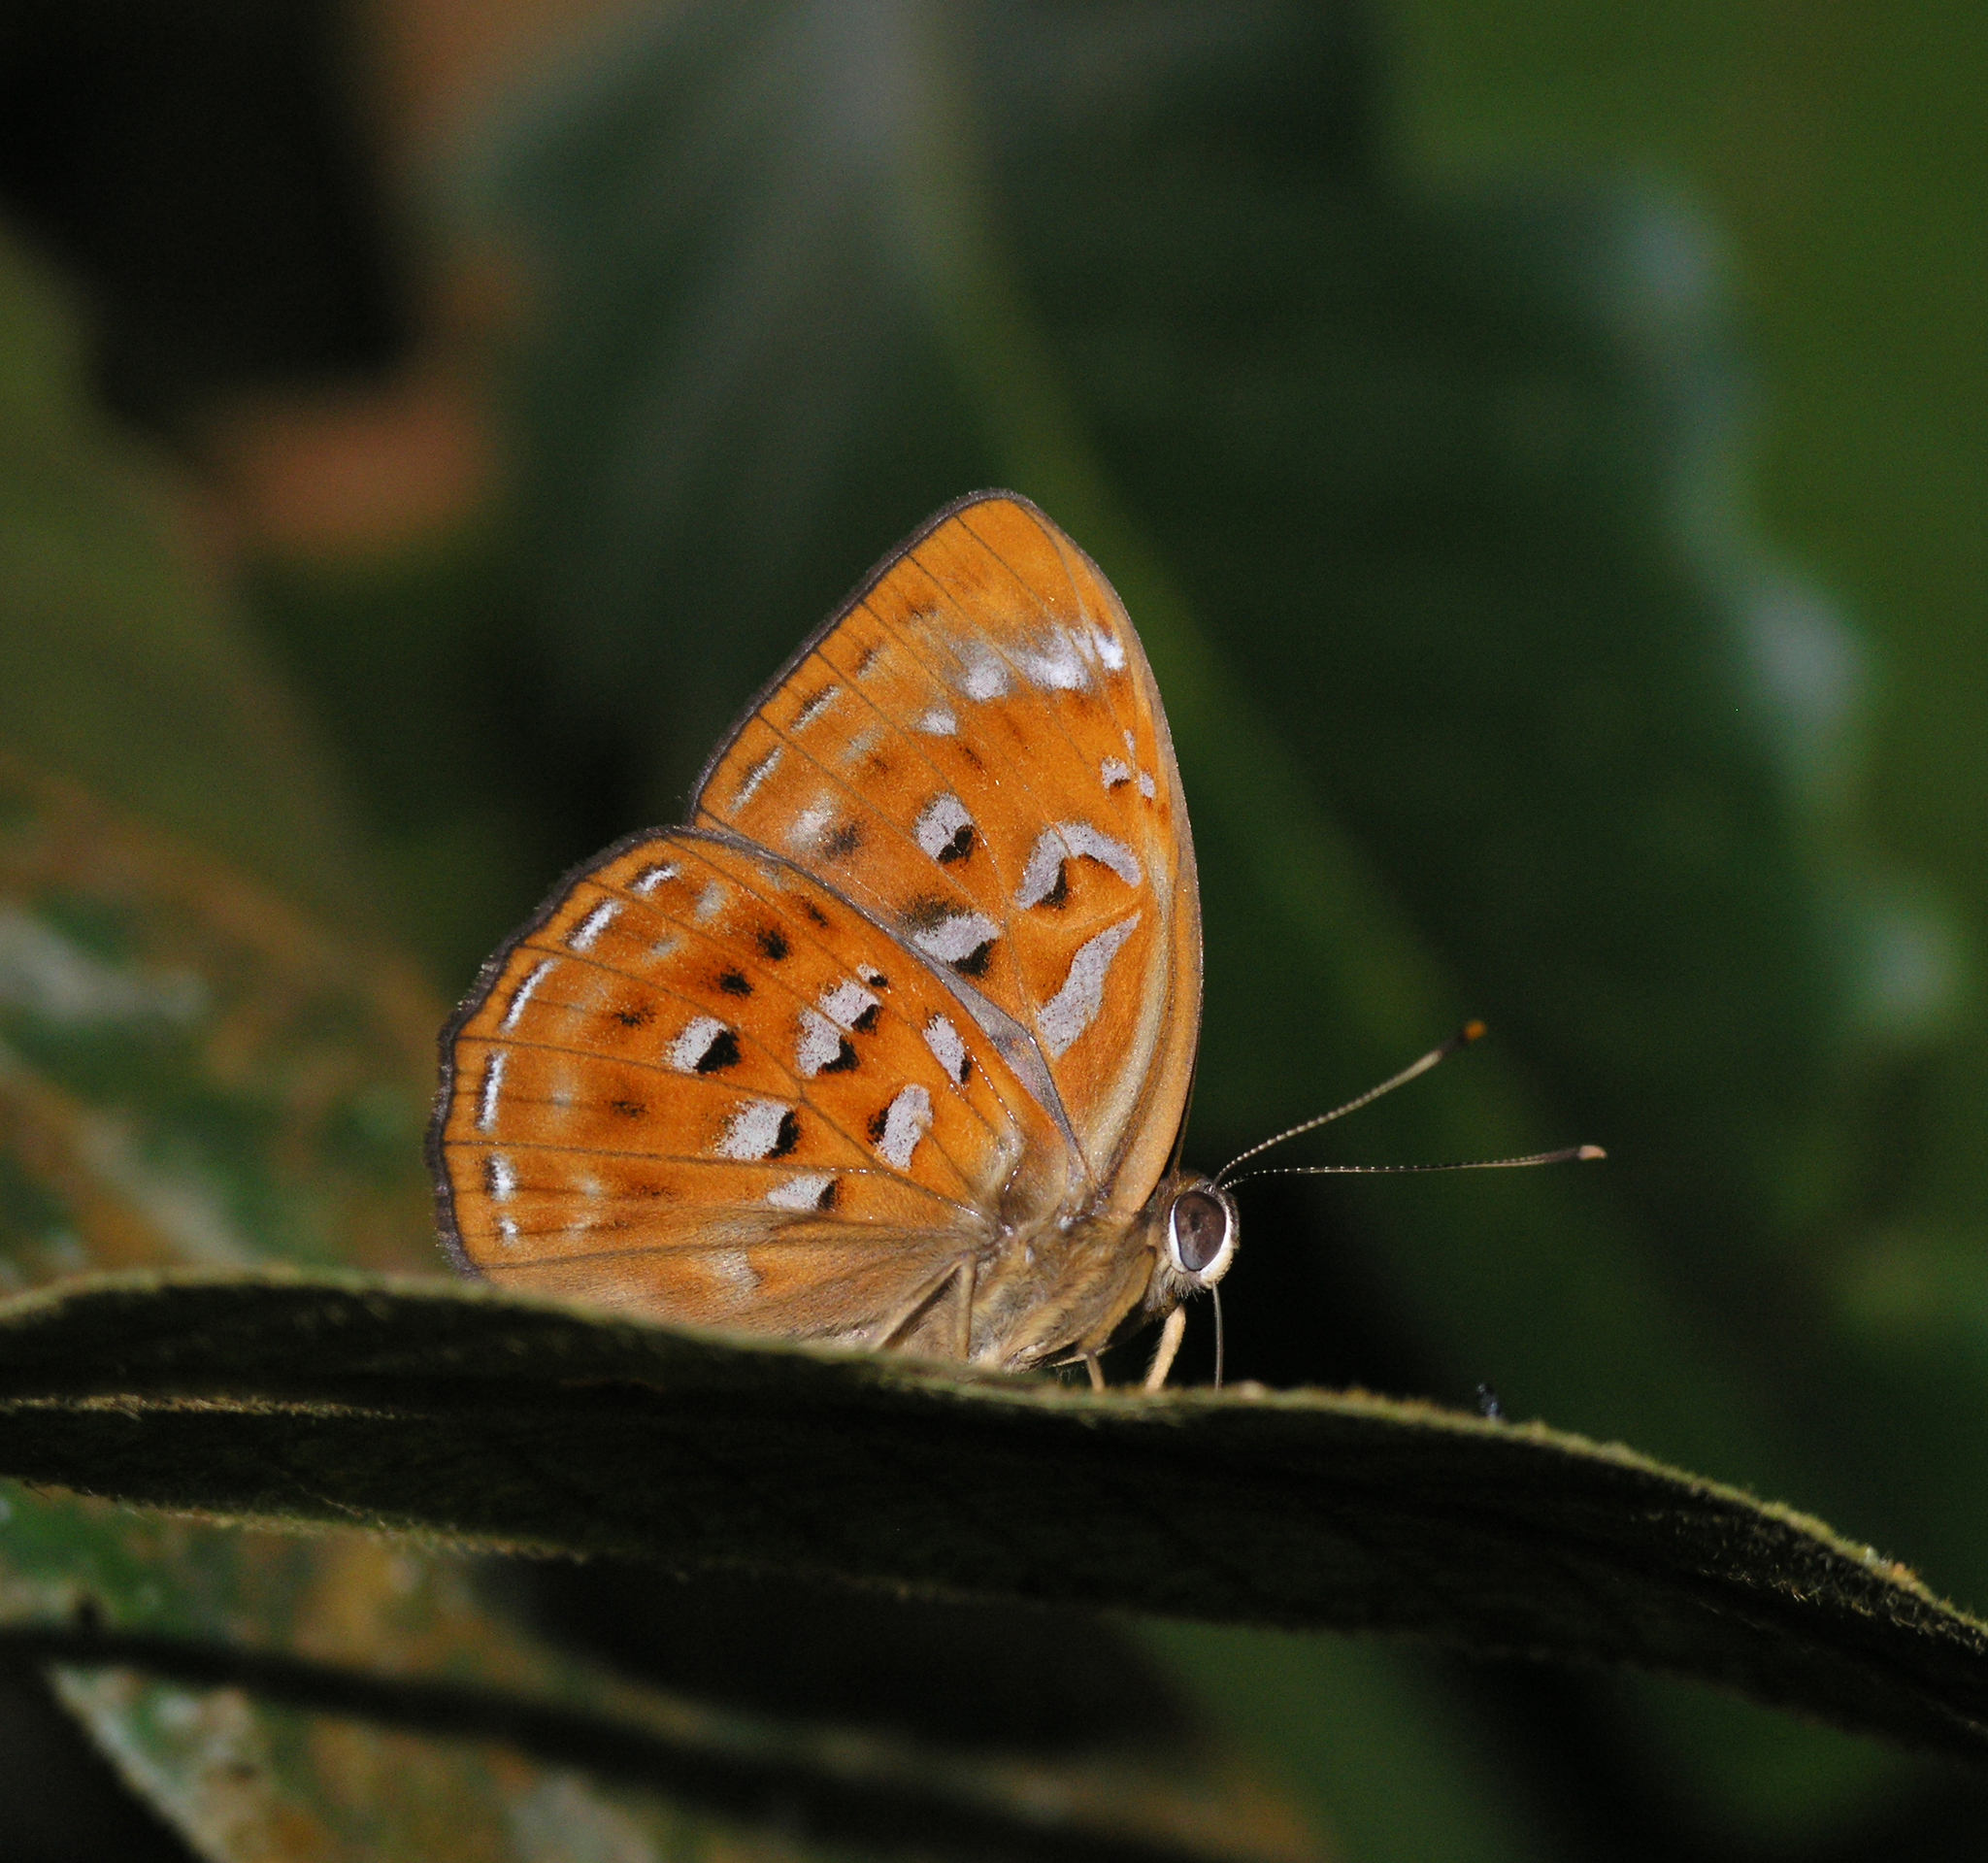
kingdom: Animalia
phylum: Arthropoda
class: Insecta
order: Lepidoptera
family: Erebidae
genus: Dysschema
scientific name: Dysschema
